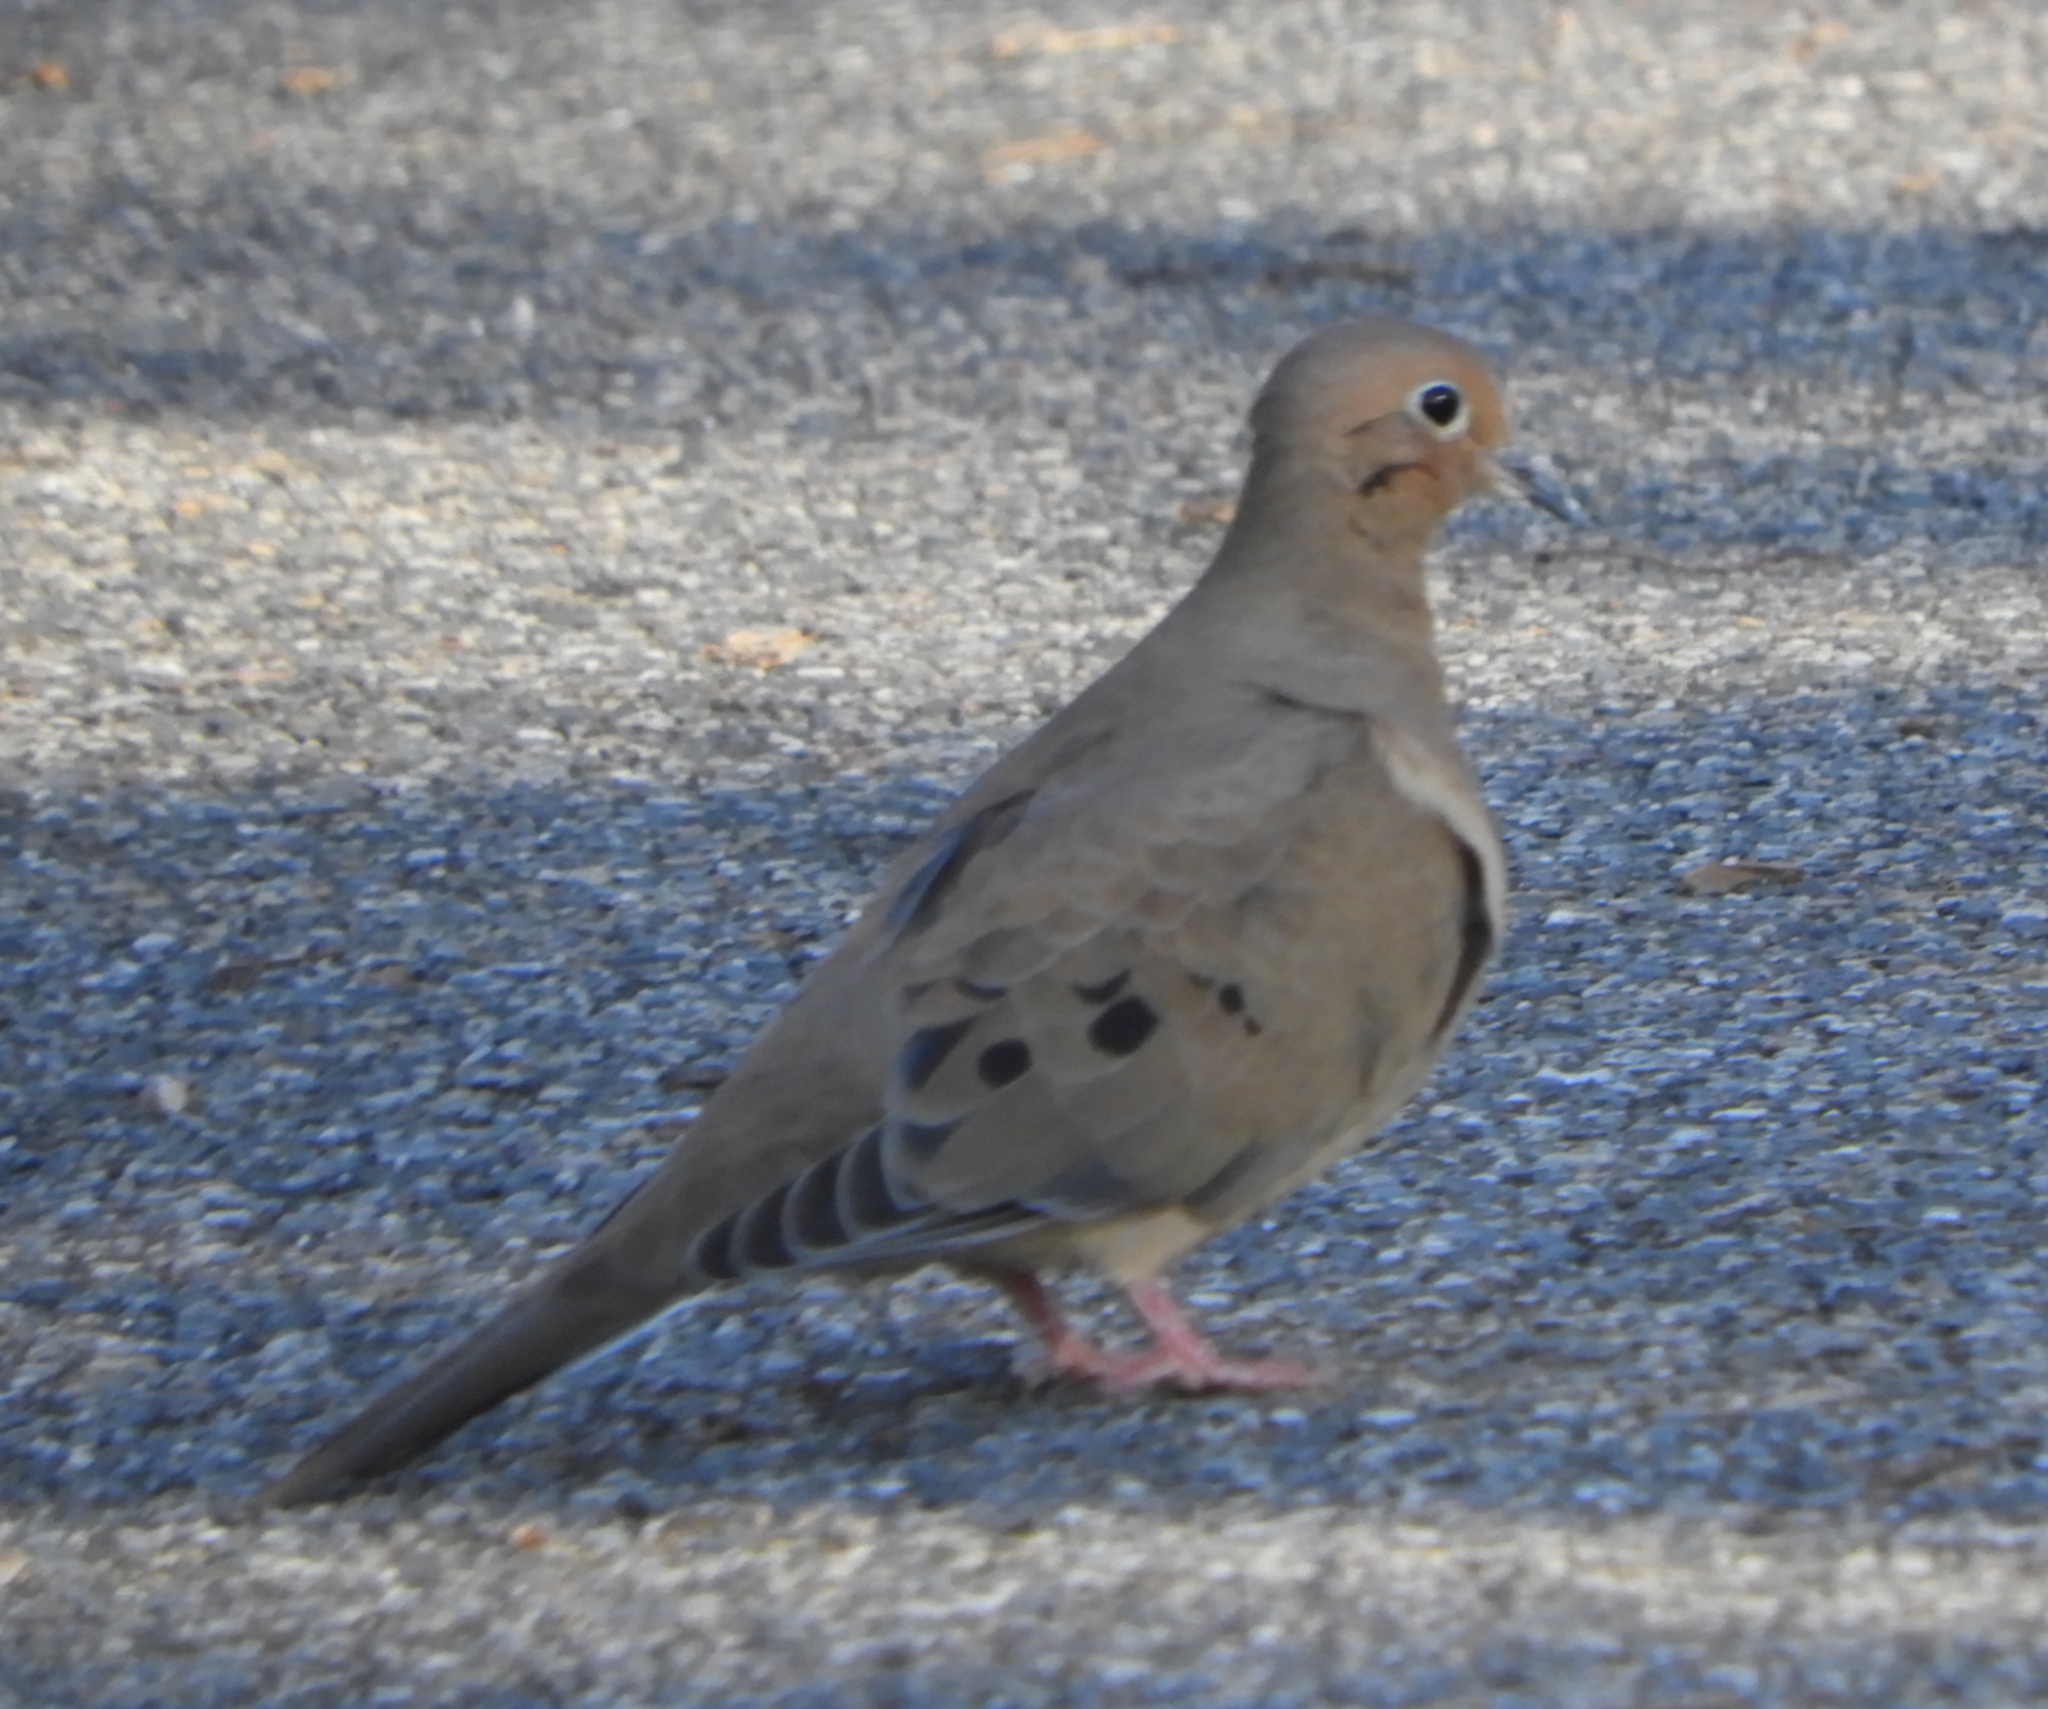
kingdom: Animalia
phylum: Chordata
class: Aves
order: Columbiformes
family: Columbidae
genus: Zenaida
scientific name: Zenaida macroura
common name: Mourning dove
